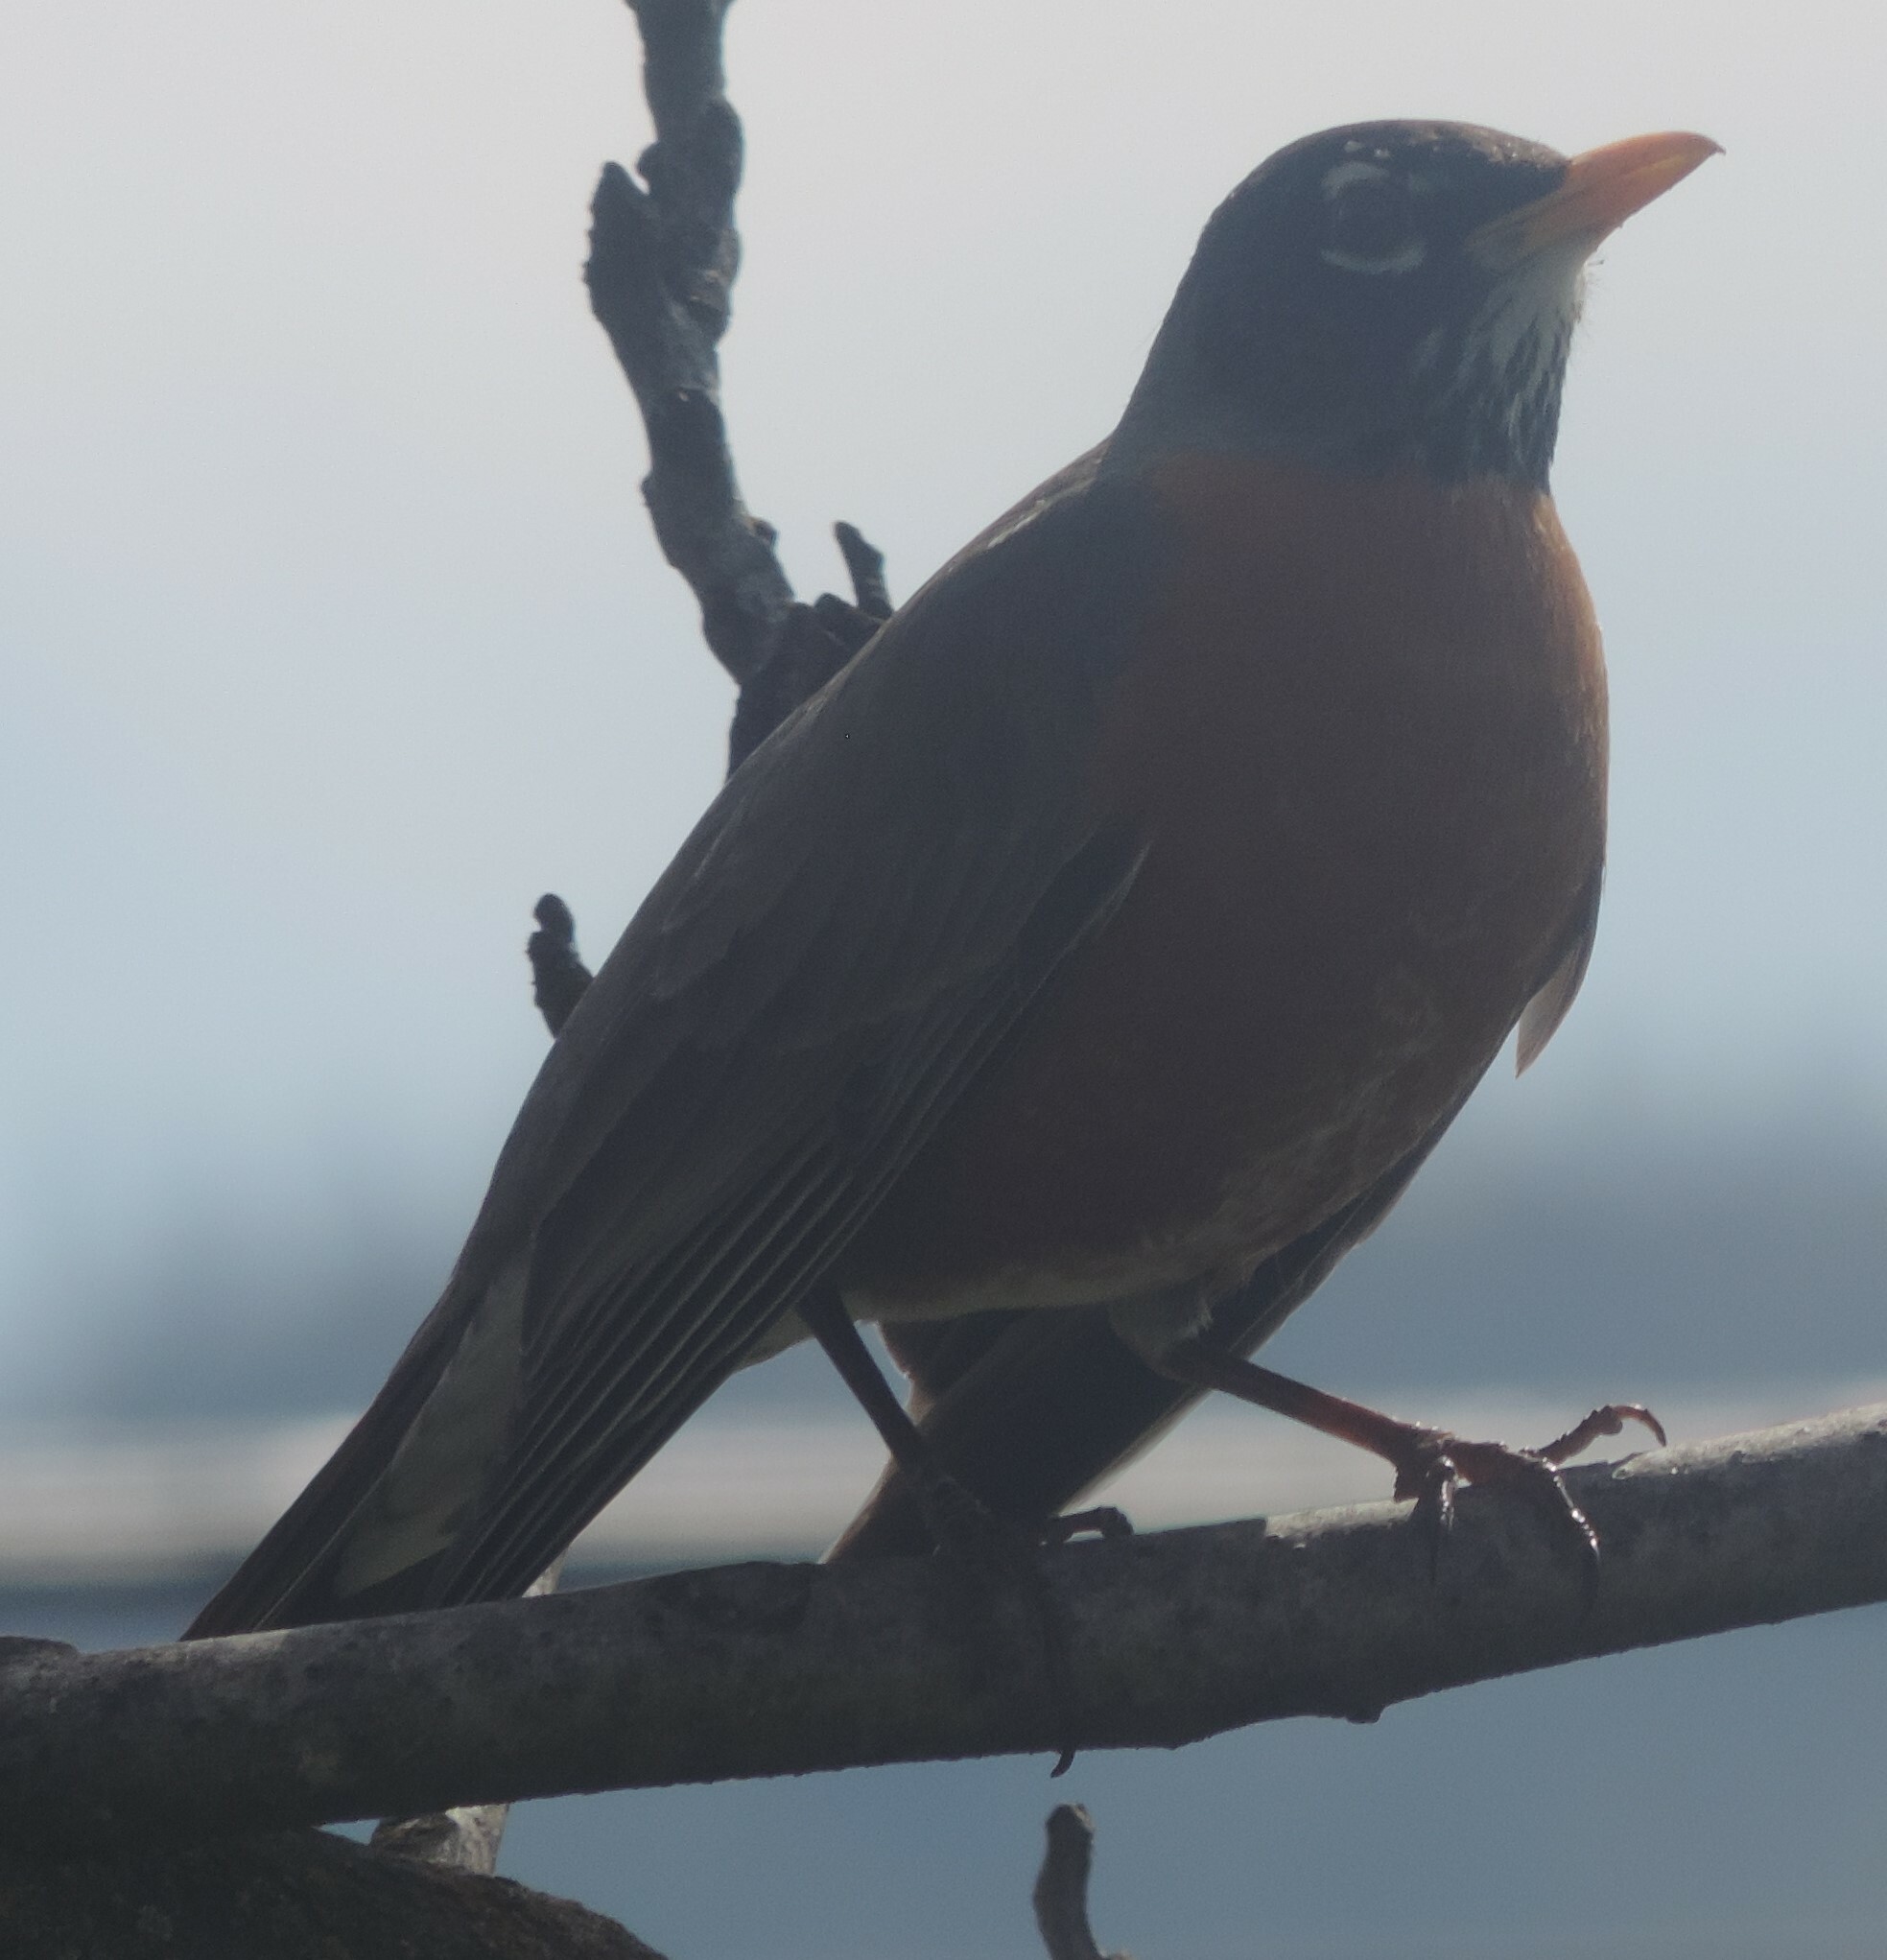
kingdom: Animalia
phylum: Chordata
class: Aves
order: Passeriformes
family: Turdidae
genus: Turdus
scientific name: Turdus migratorius
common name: American robin
